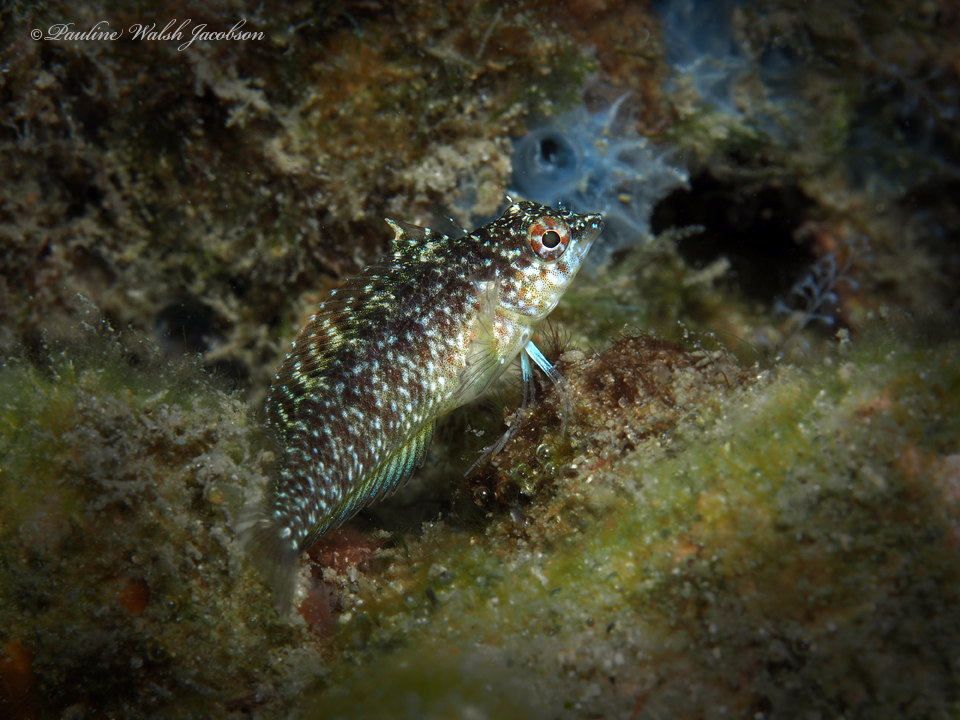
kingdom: Animalia
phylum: Chordata
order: Perciformes
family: Labrisomidae
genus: Malacoctenus
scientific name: Malacoctenus macropus
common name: Rosy blenny
